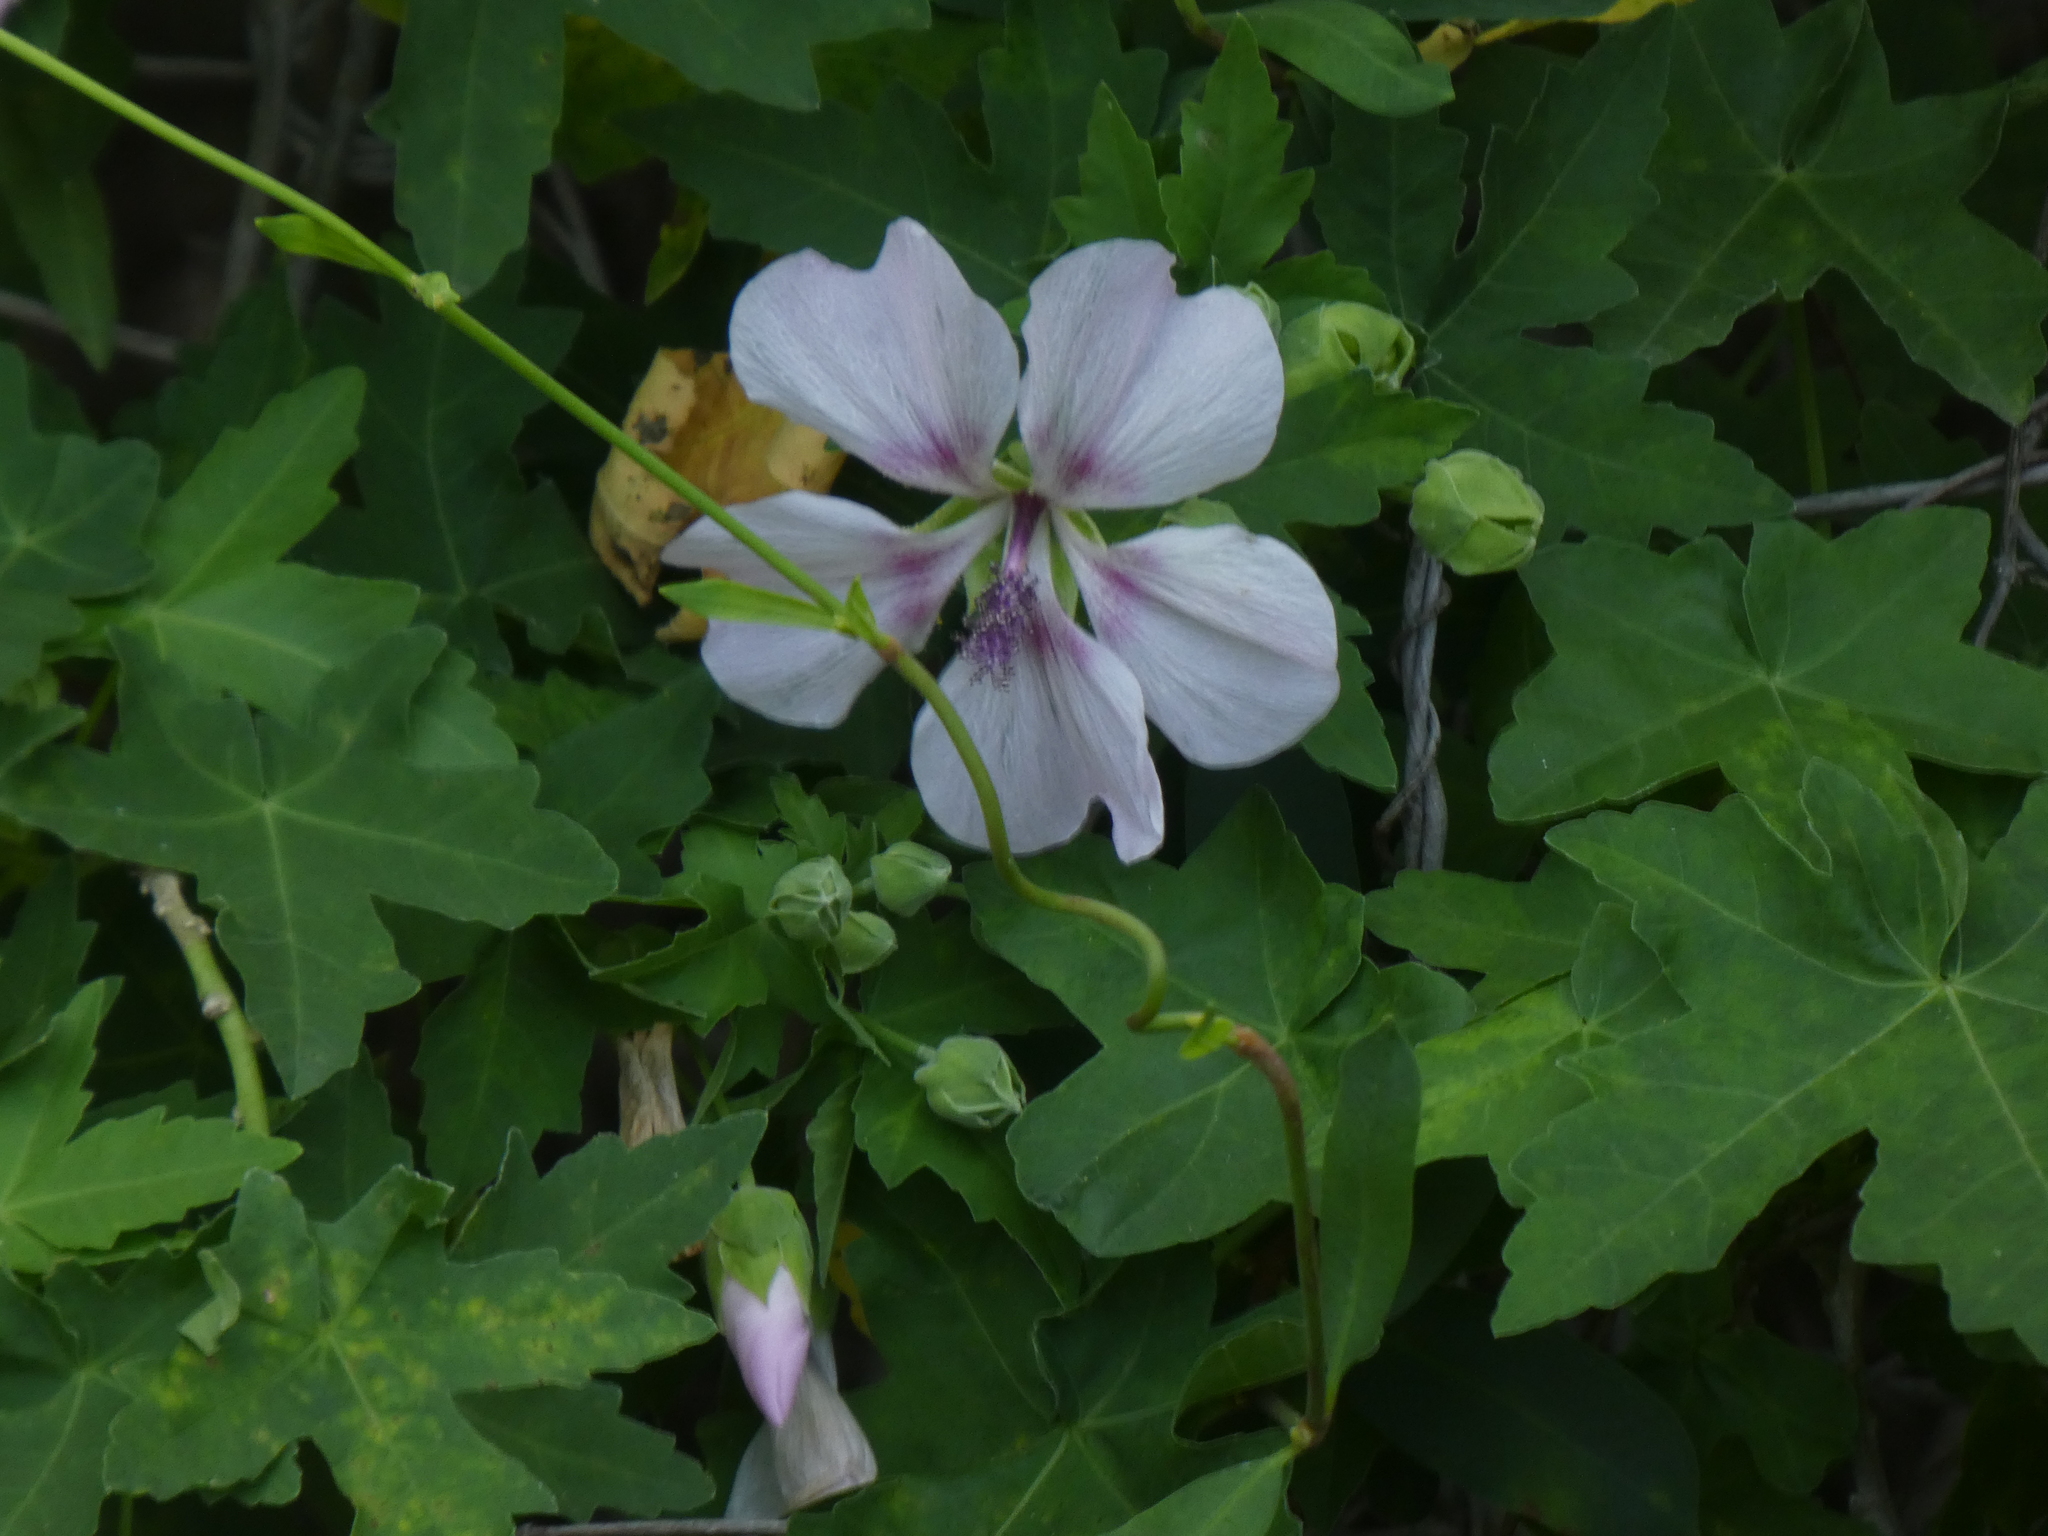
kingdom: Plantae
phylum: Tracheophyta
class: Magnoliopsida
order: Malvales
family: Malvaceae
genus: Malva
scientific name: Malva acerifolia
